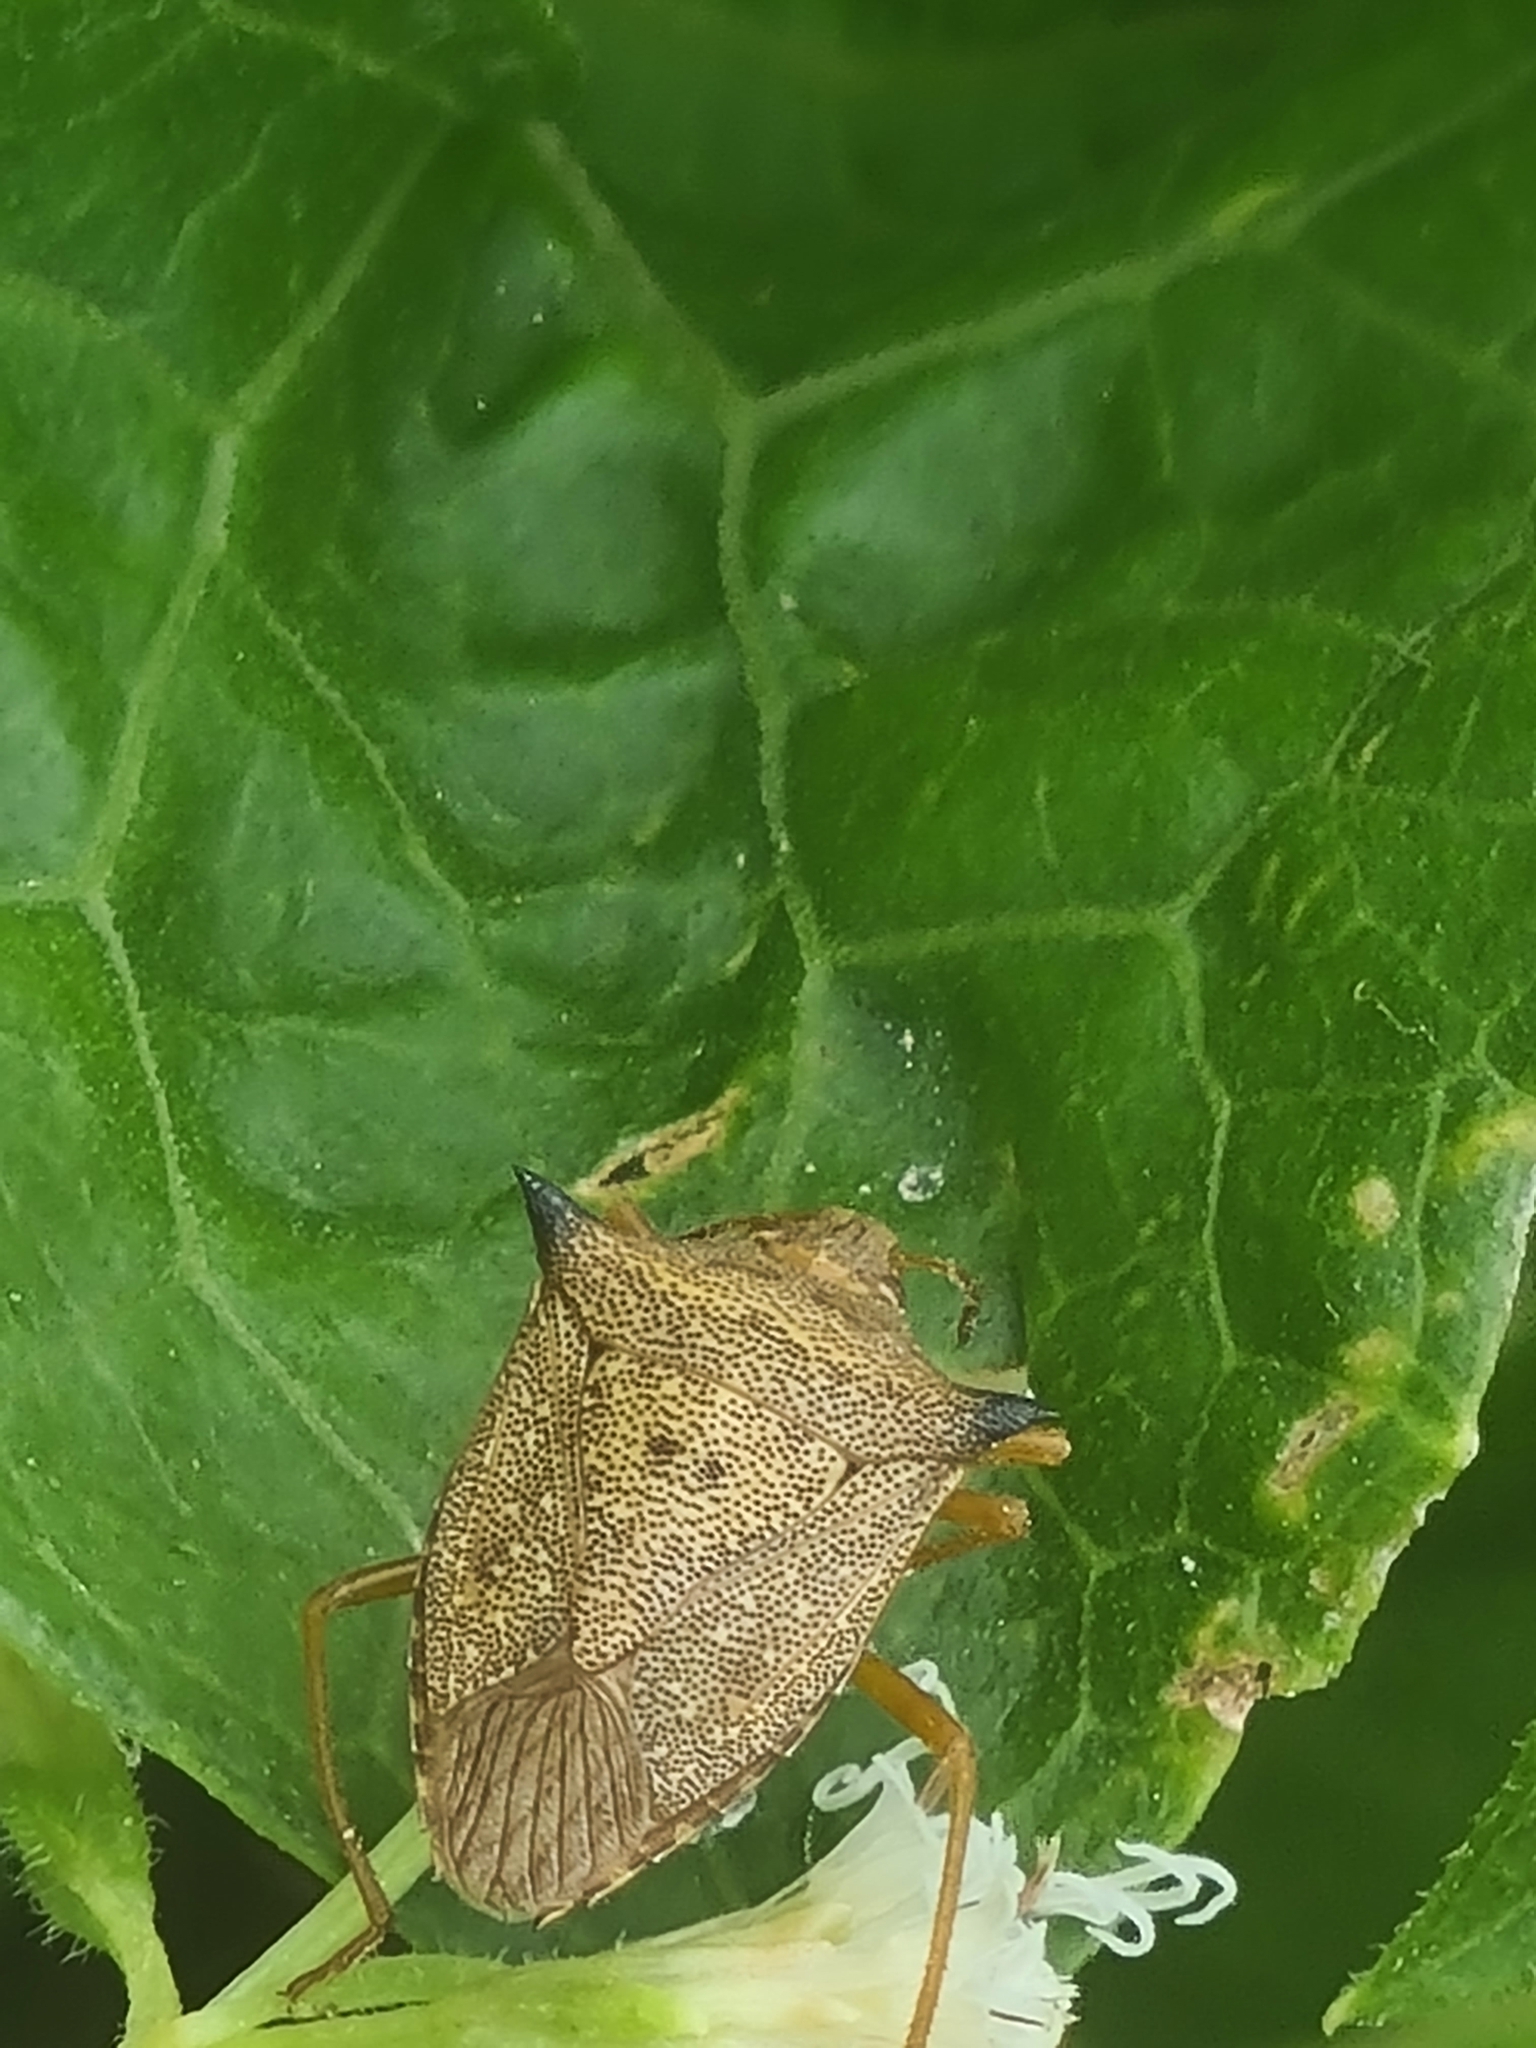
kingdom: Animalia
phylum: Arthropoda
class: Insecta
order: Hemiptera
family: Pentatomidae
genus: Euschistus
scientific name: Euschistus atrox
